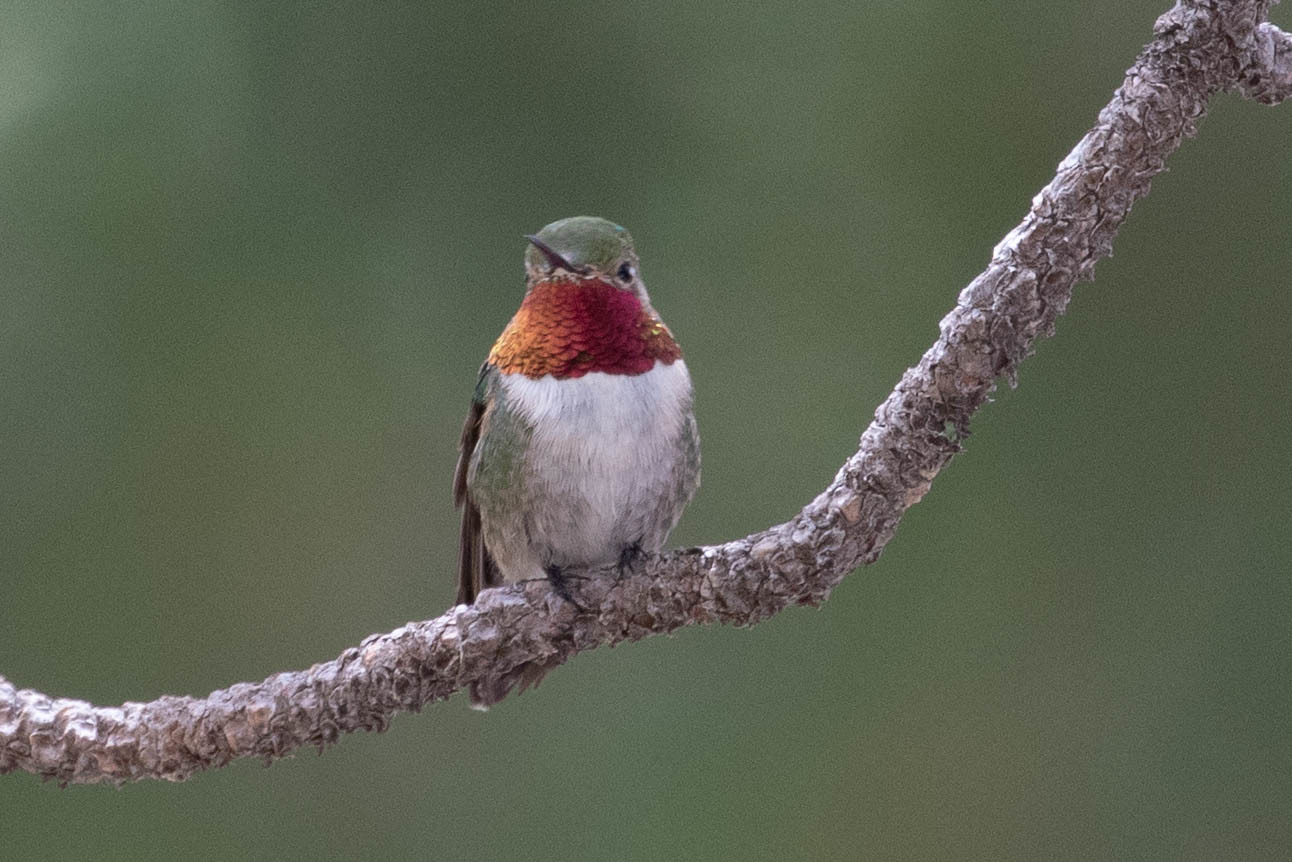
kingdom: Animalia
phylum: Chordata
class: Aves
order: Apodiformes
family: Trochilidae
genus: Selasphorus
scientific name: Selasphorus platycercus
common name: Broad-tailed hummingbird
